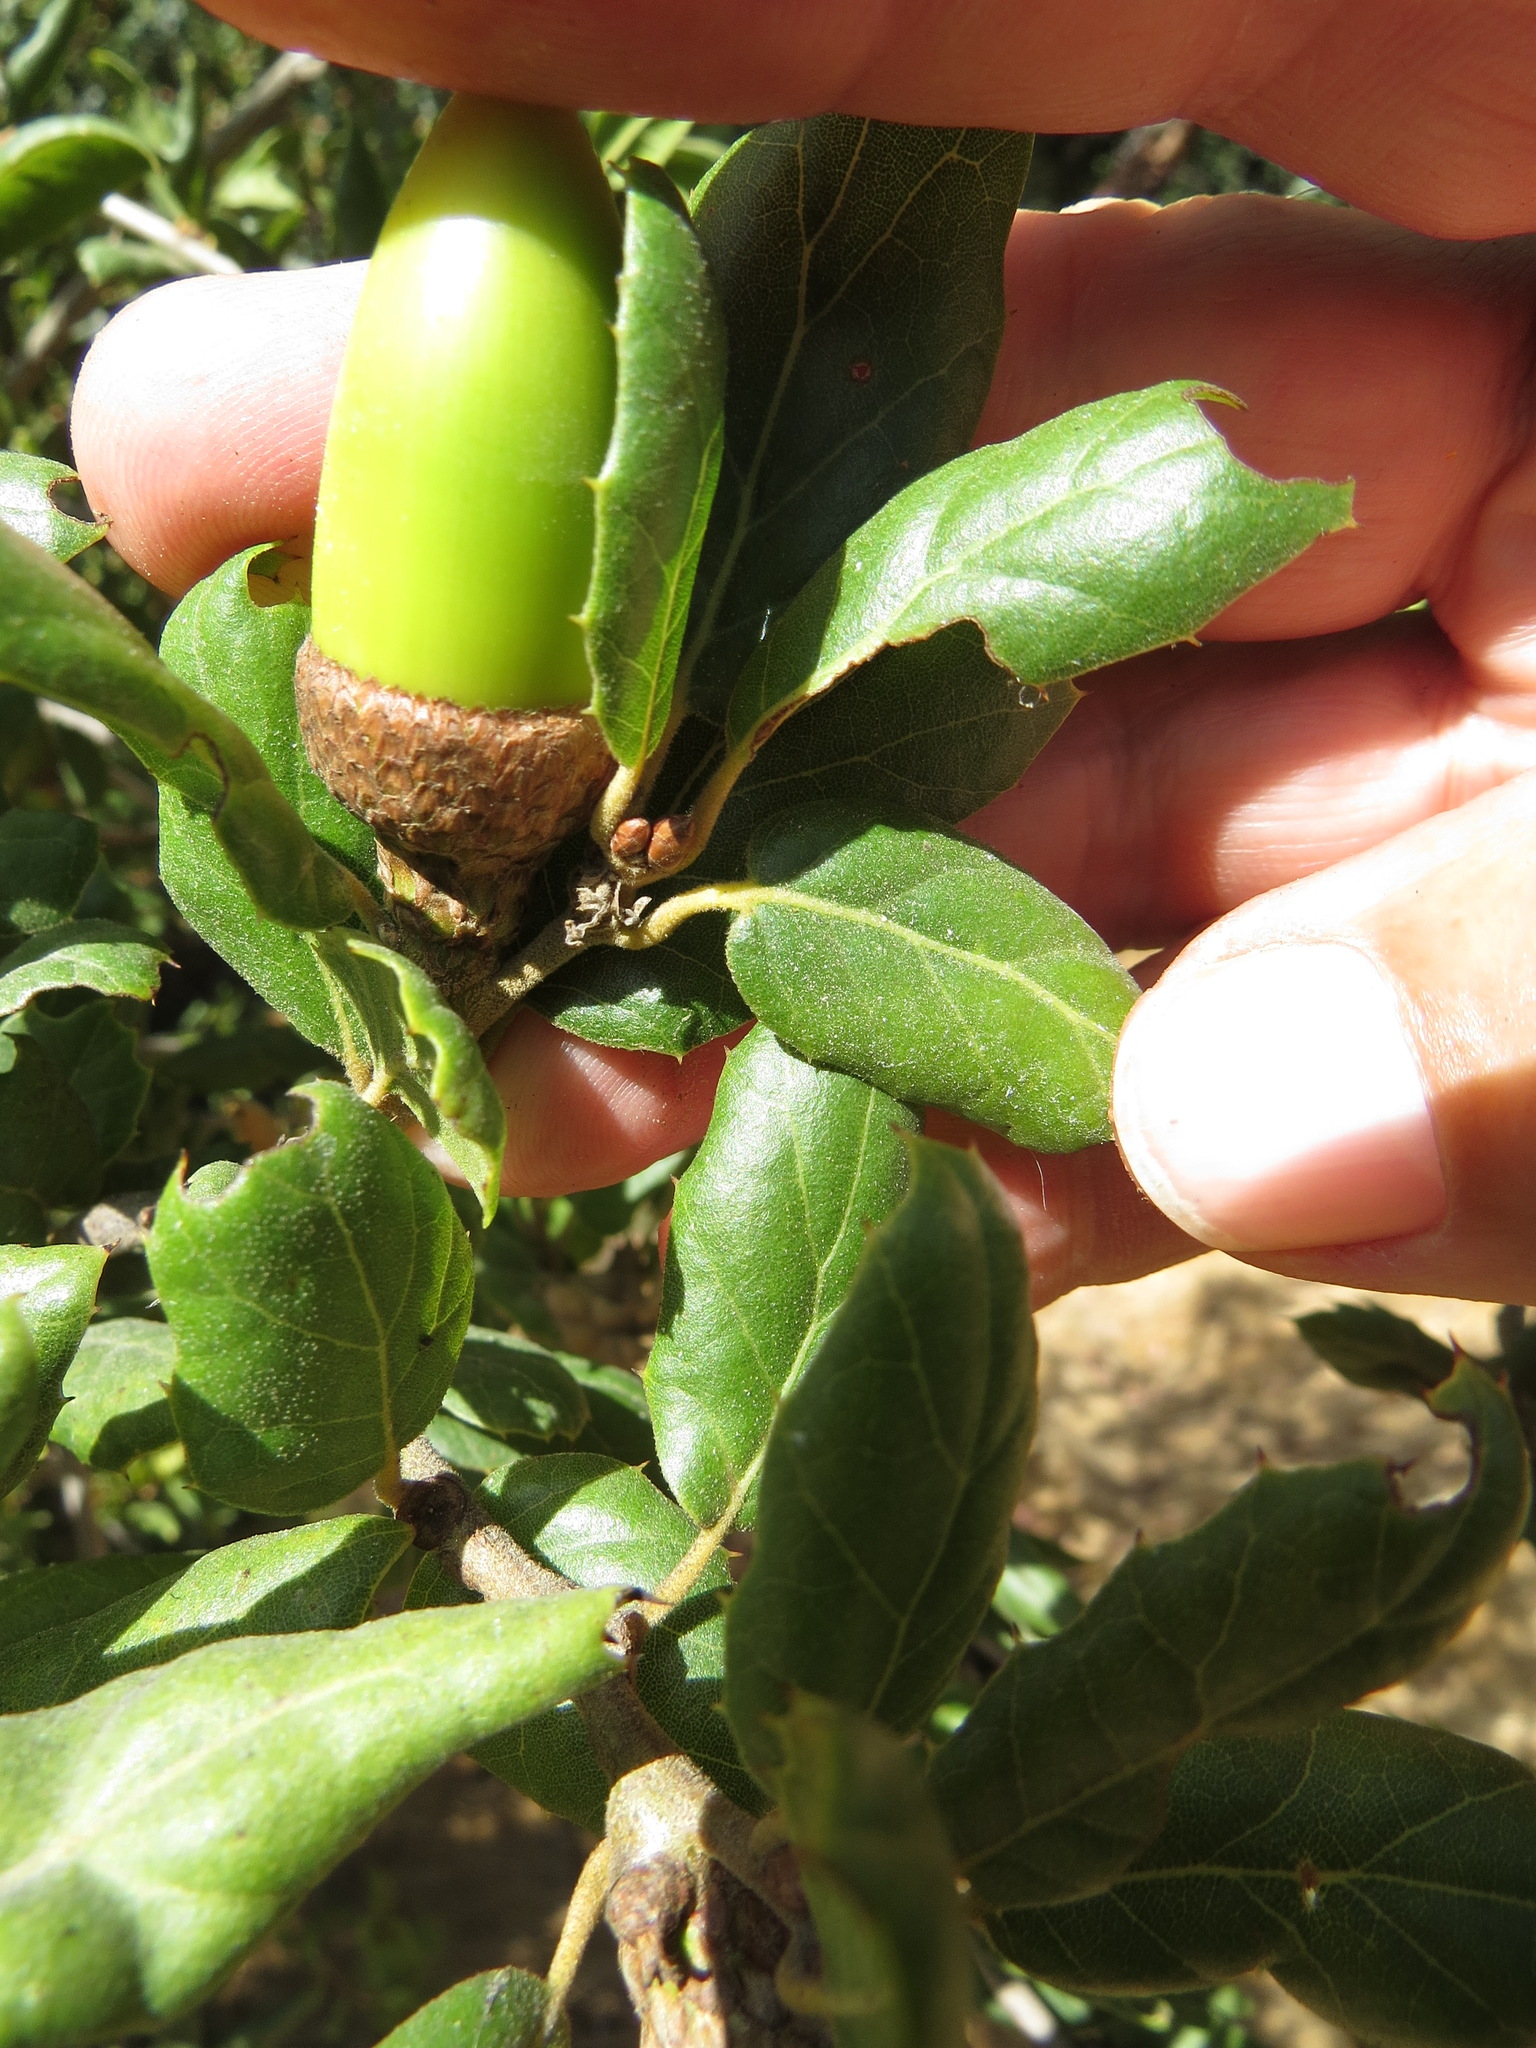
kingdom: Plantae
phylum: Tracheophyta
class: Magnoliopsida
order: Fagales
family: Fagaceae
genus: Quercus
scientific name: Quercus agrifolia
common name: California live oak
